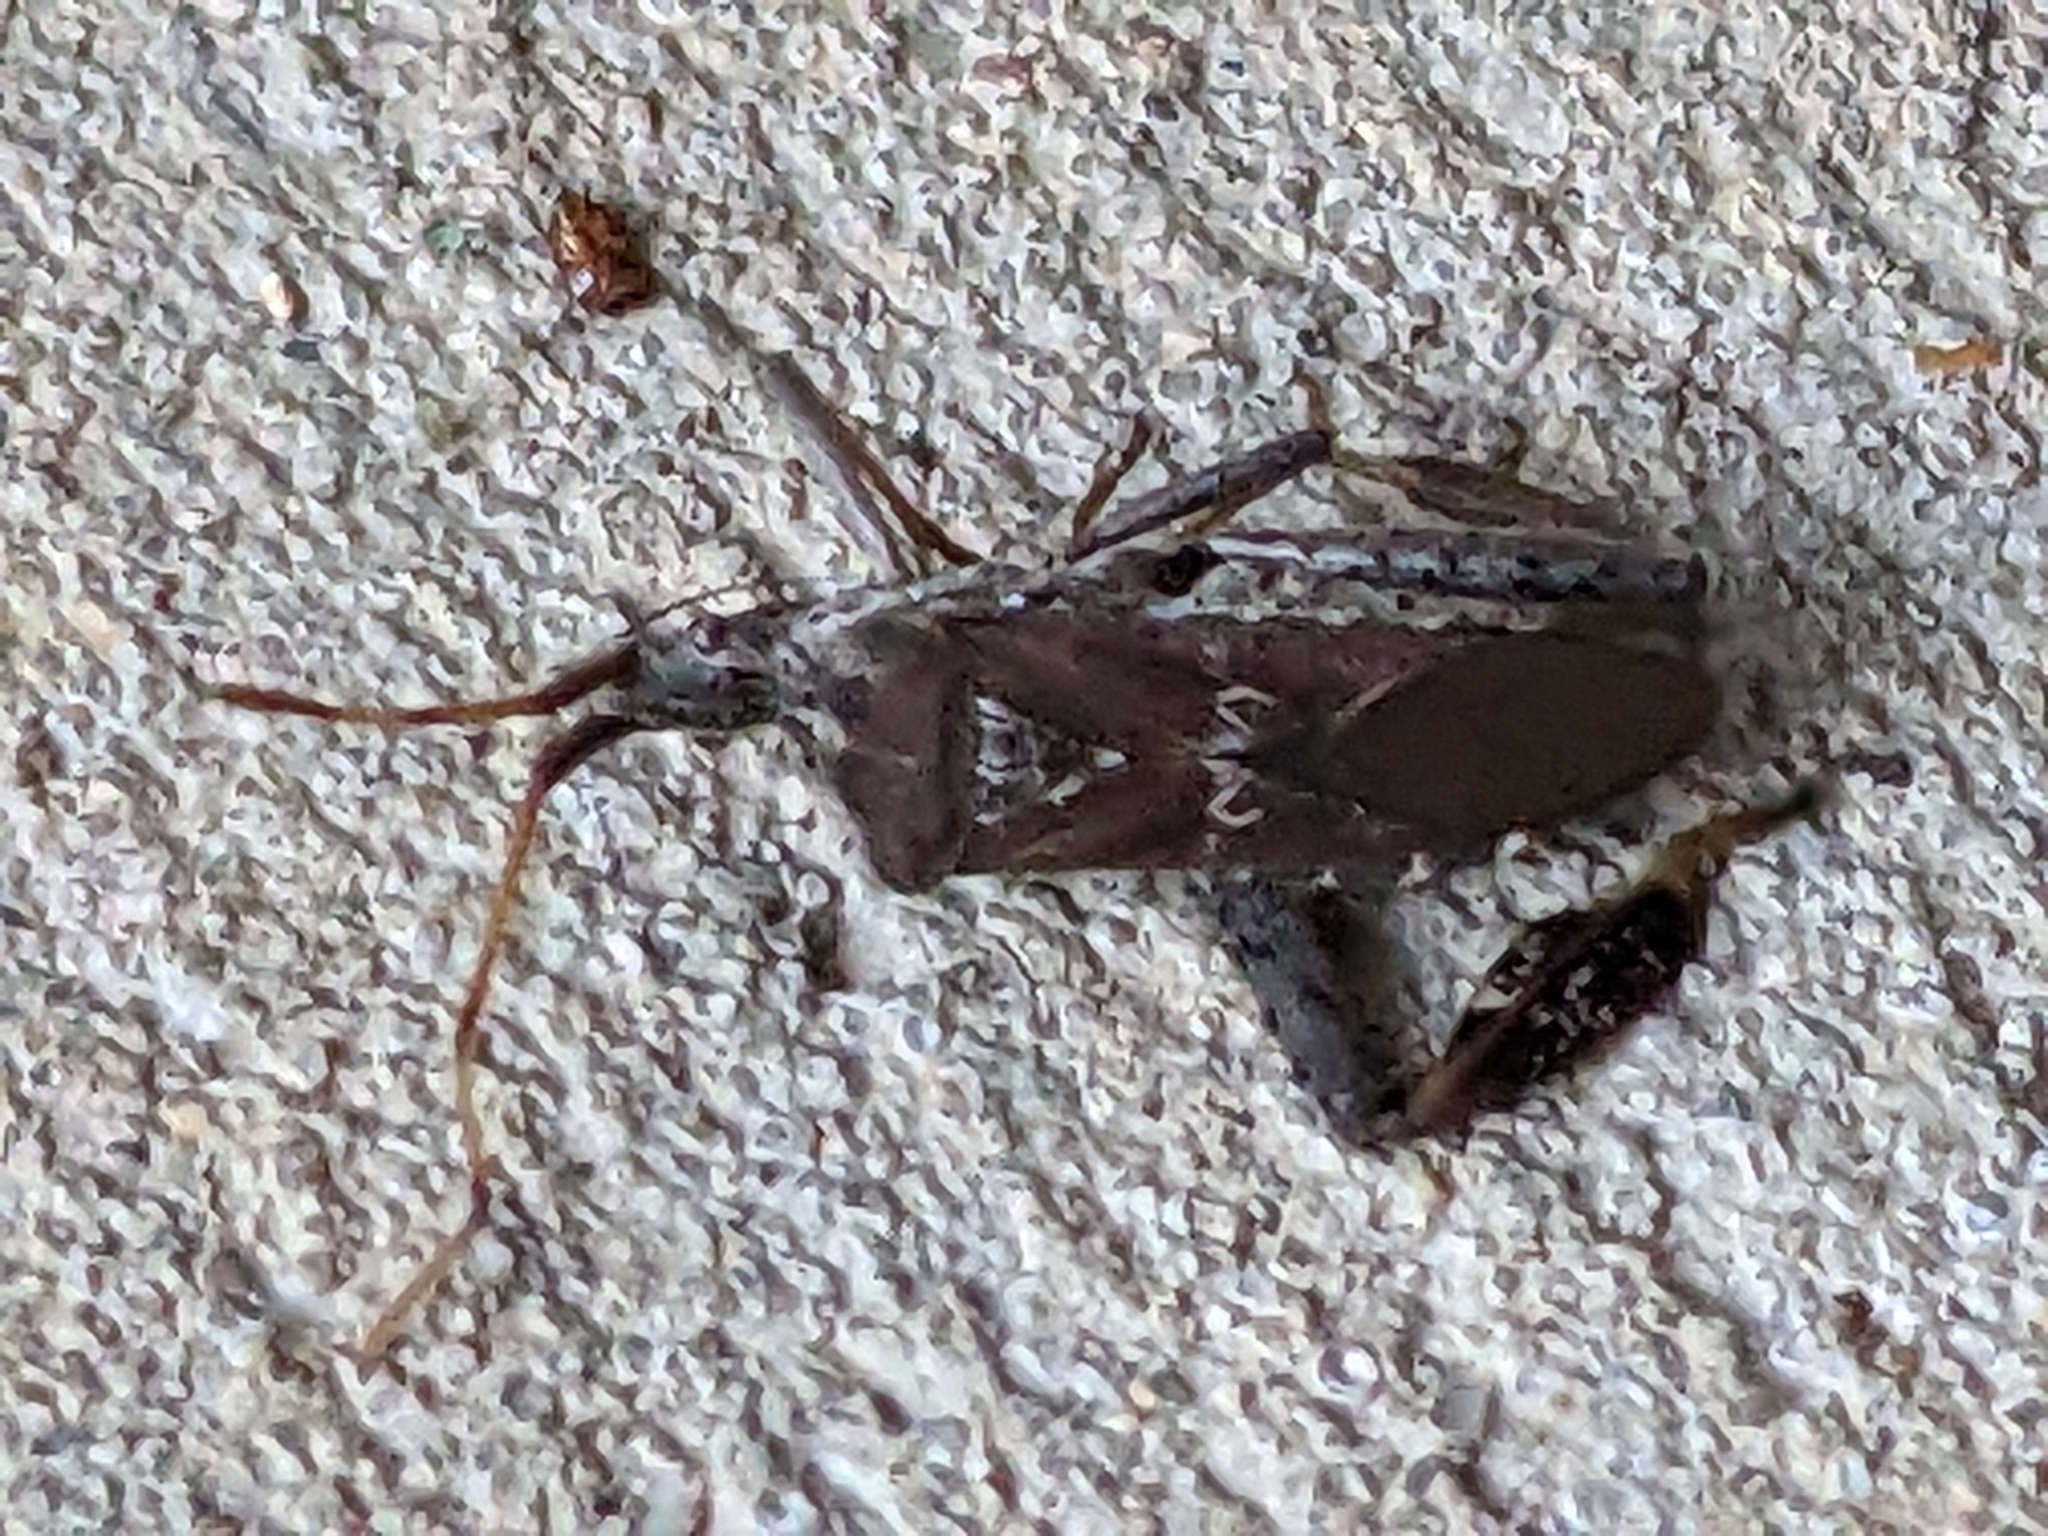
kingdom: Animalia
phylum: Arthropoda
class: Insecta
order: Hemiptera
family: Coreidae
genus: Leptoglossus
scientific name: Leptoglossus corculus
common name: Southern pine seed bug
